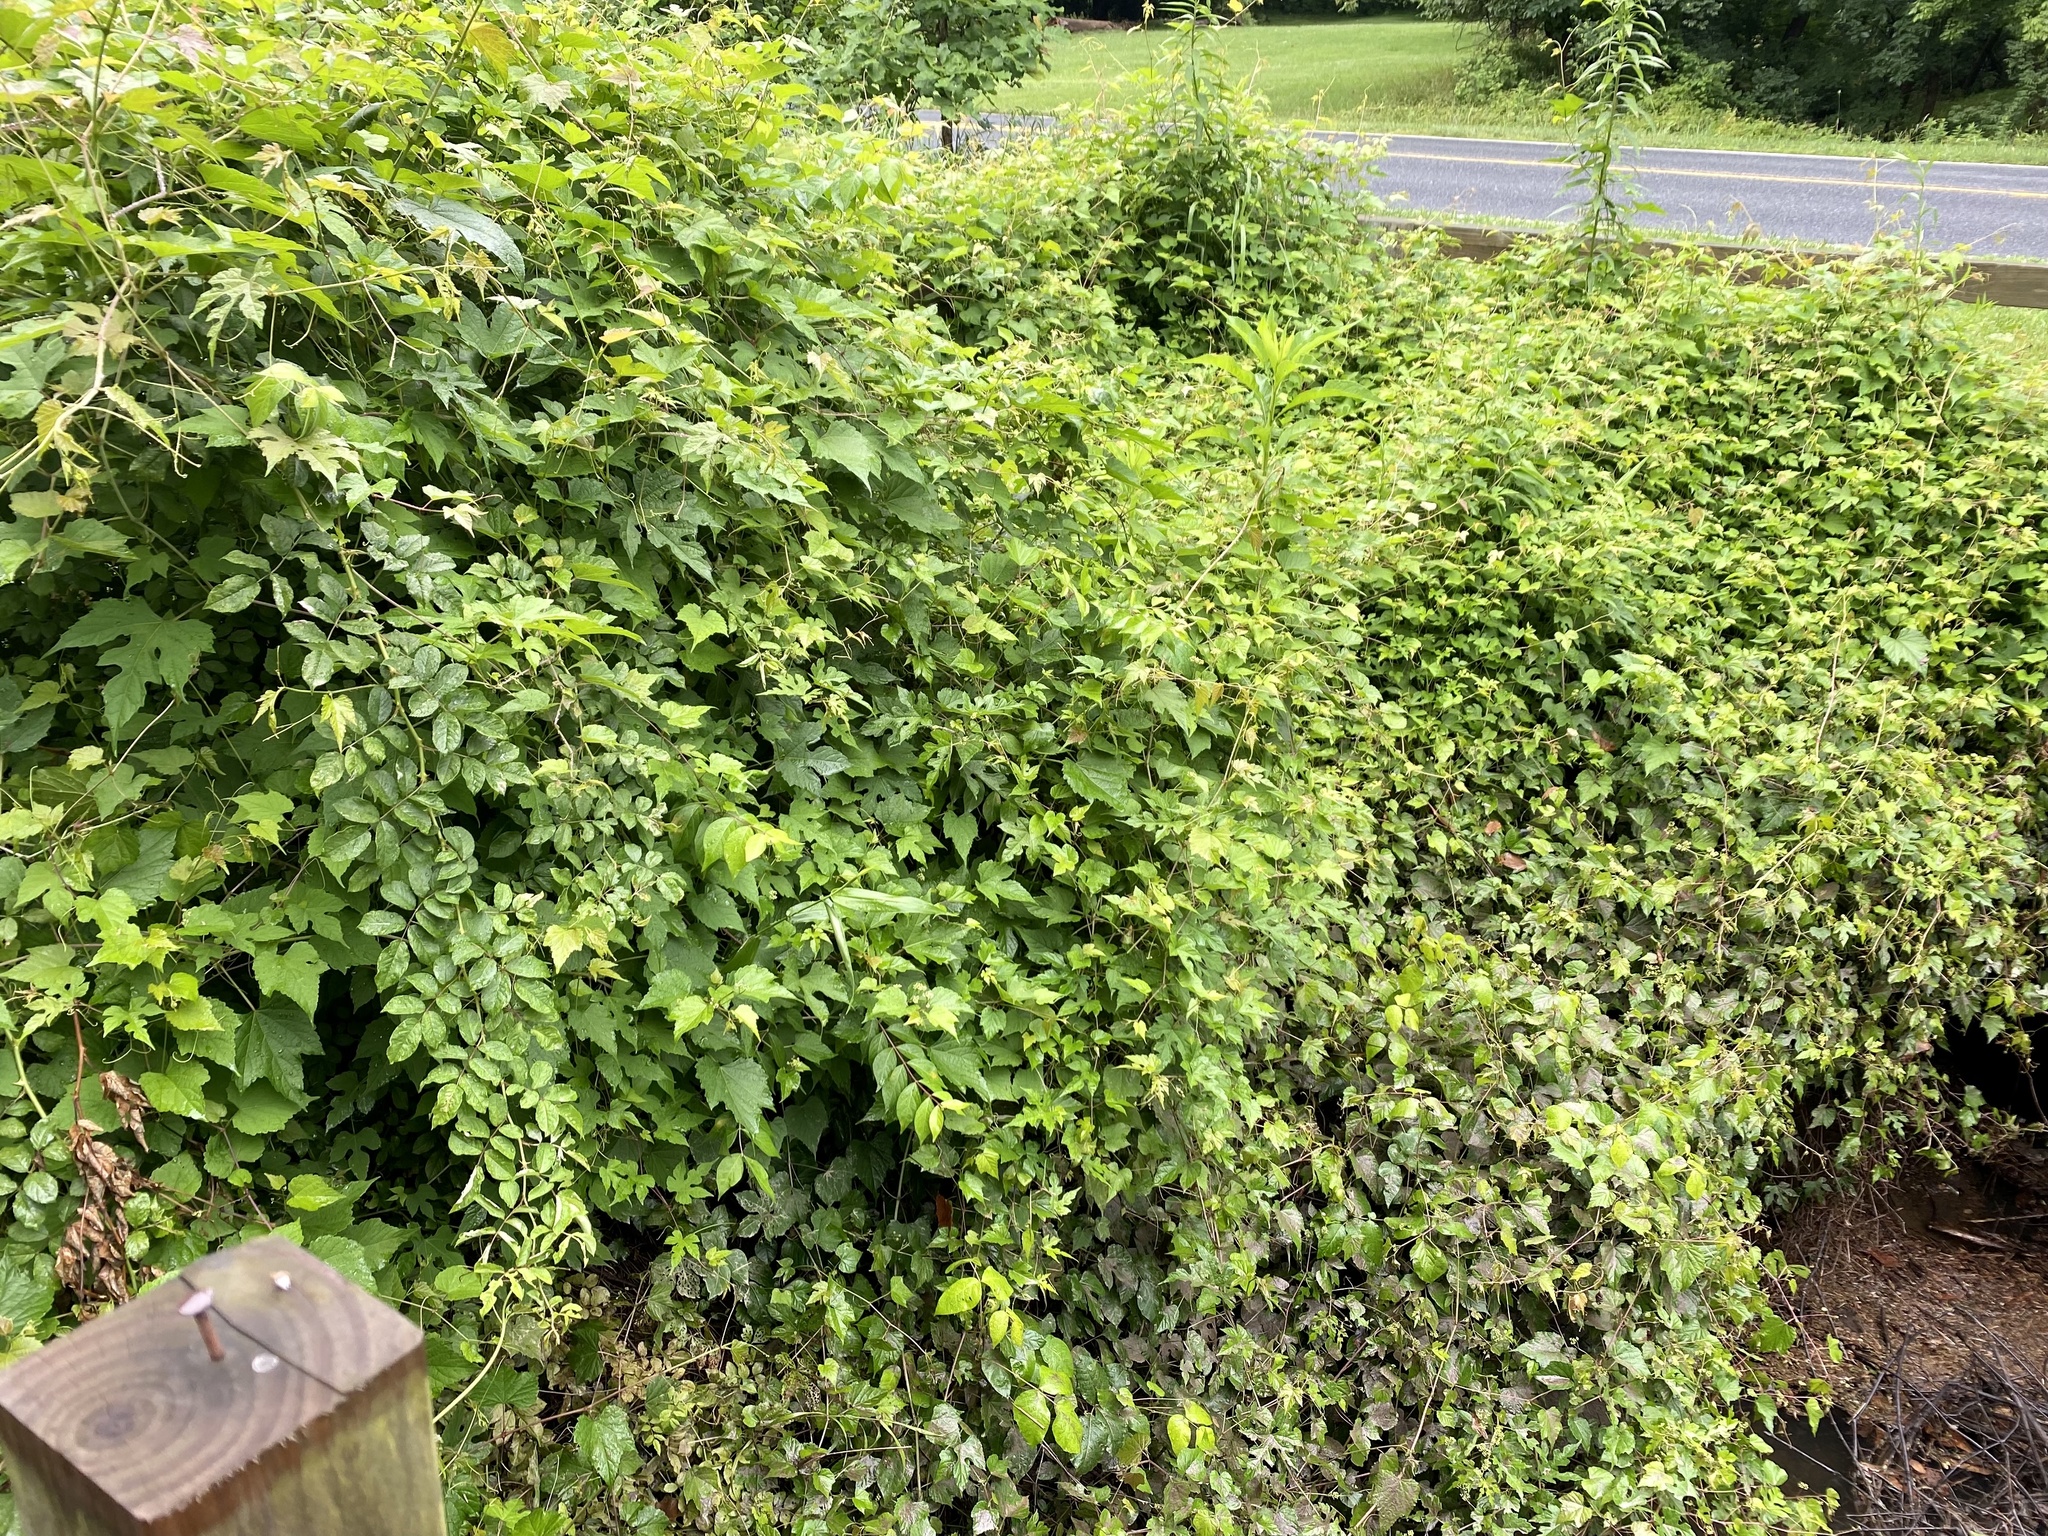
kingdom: Plantae
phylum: Tracheophyta
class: Magnoliopsida
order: Vitales
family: Vitaceae
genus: Ampelopsis
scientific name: Ampelopsis glandulosa
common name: Amur peppervine
